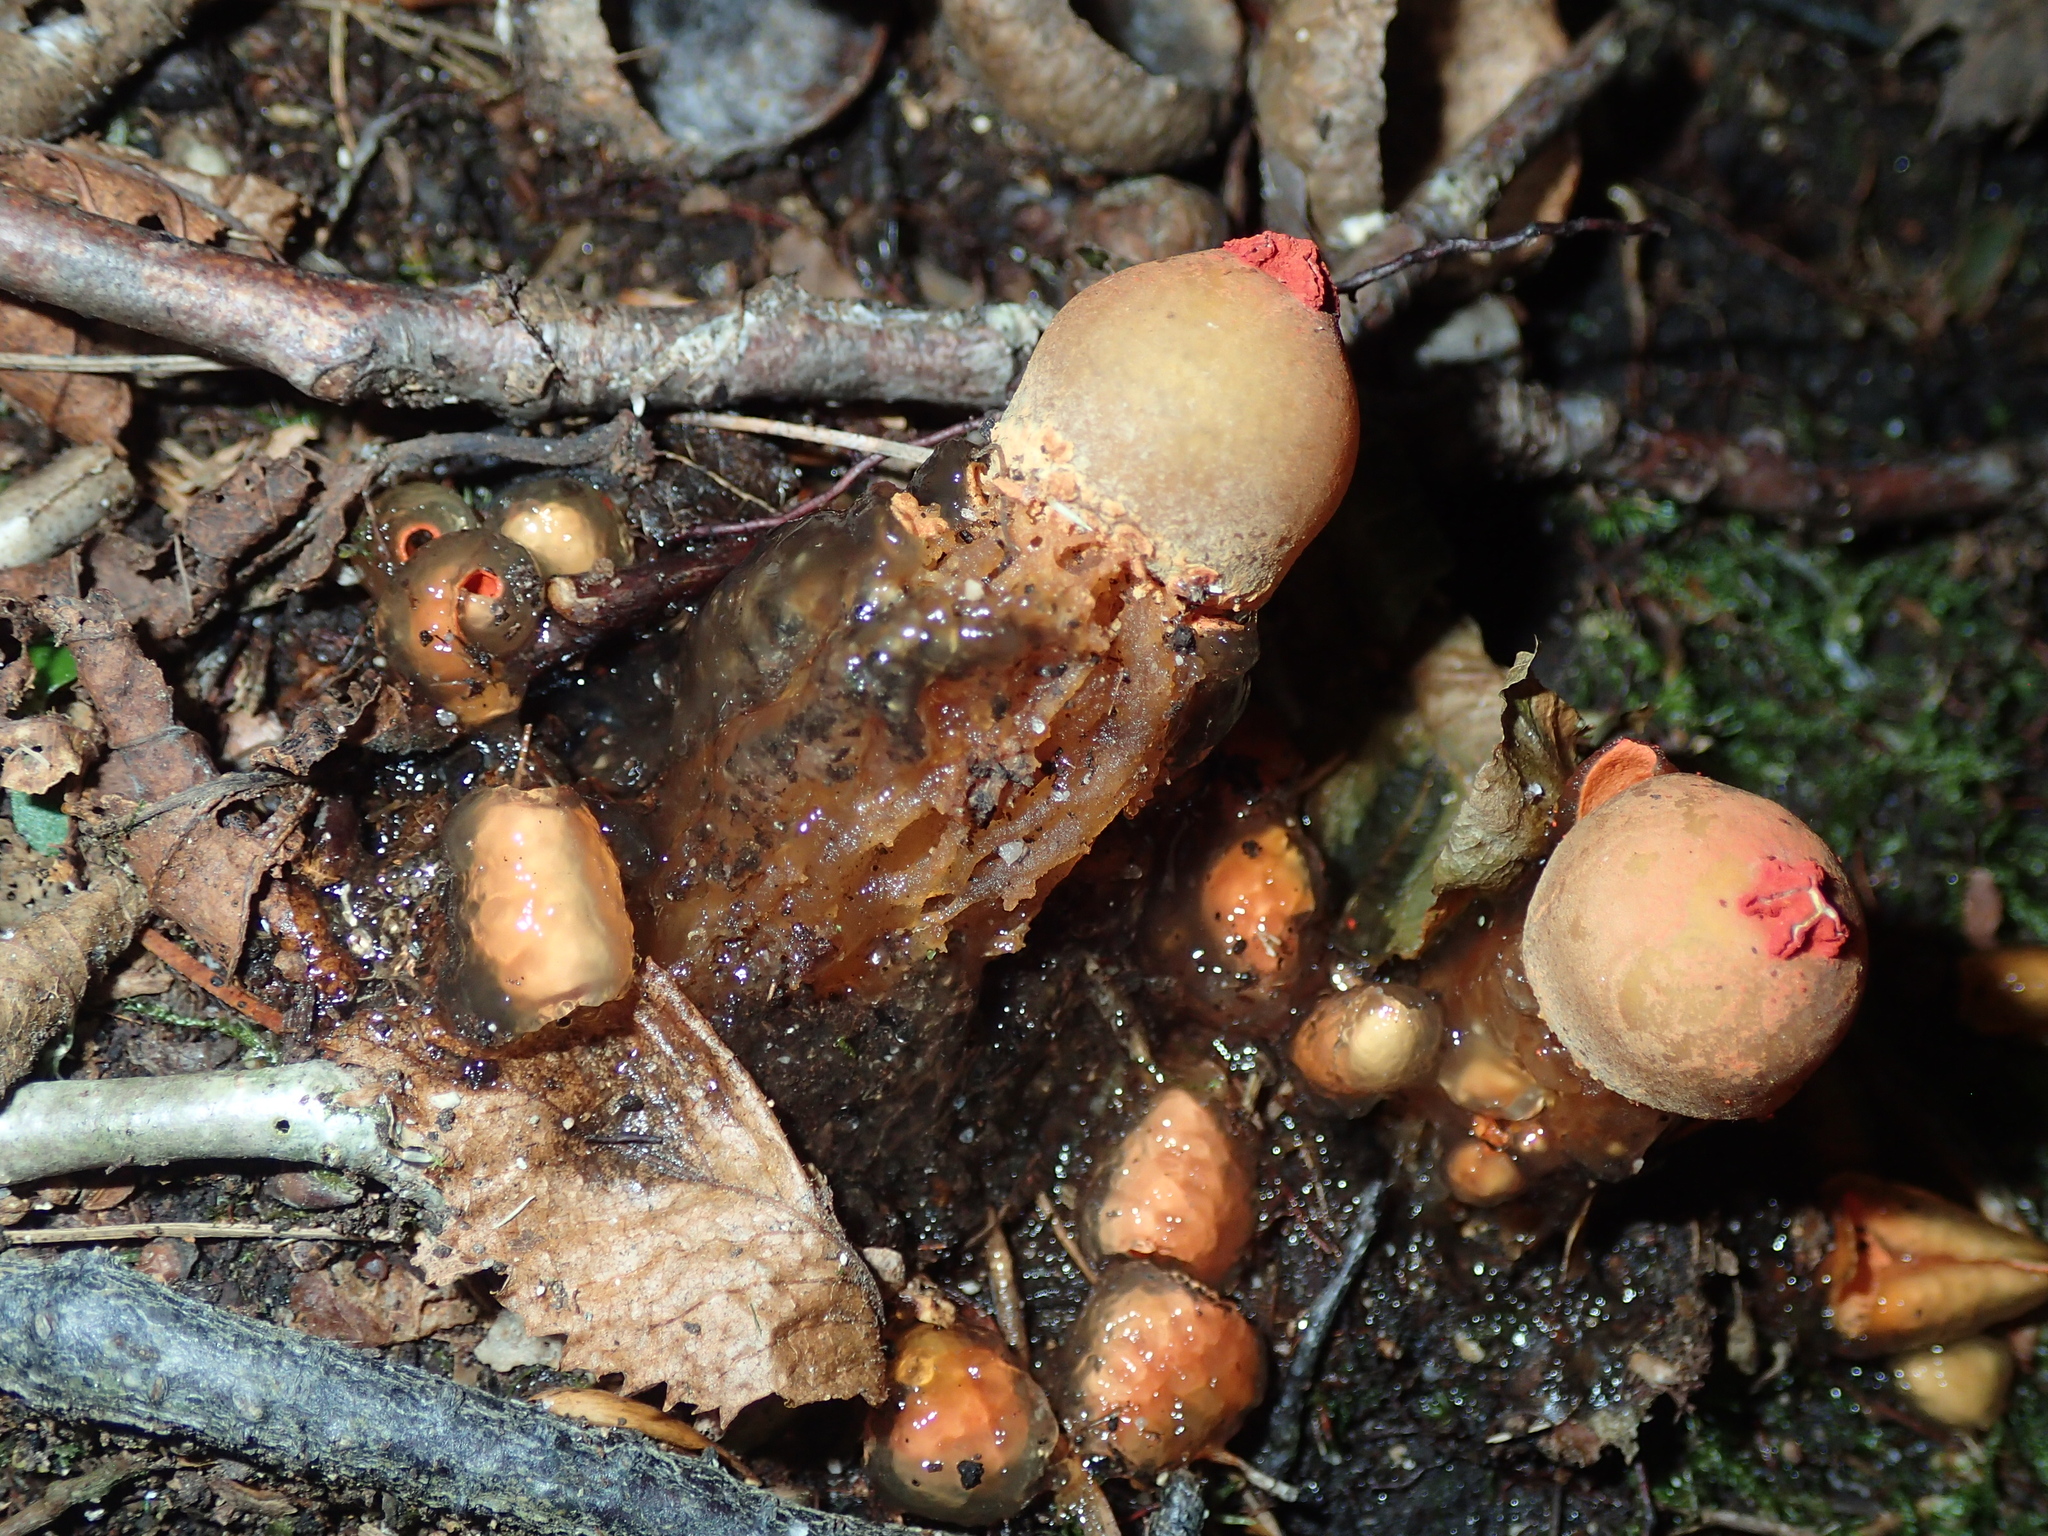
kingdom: Fungi
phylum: Basidiomycota
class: Agaricomycetes
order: Boletales
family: Calostomataceae
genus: Calostoma
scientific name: Calostoma cinnabarinum
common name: Stalked puffball-in-aspic
